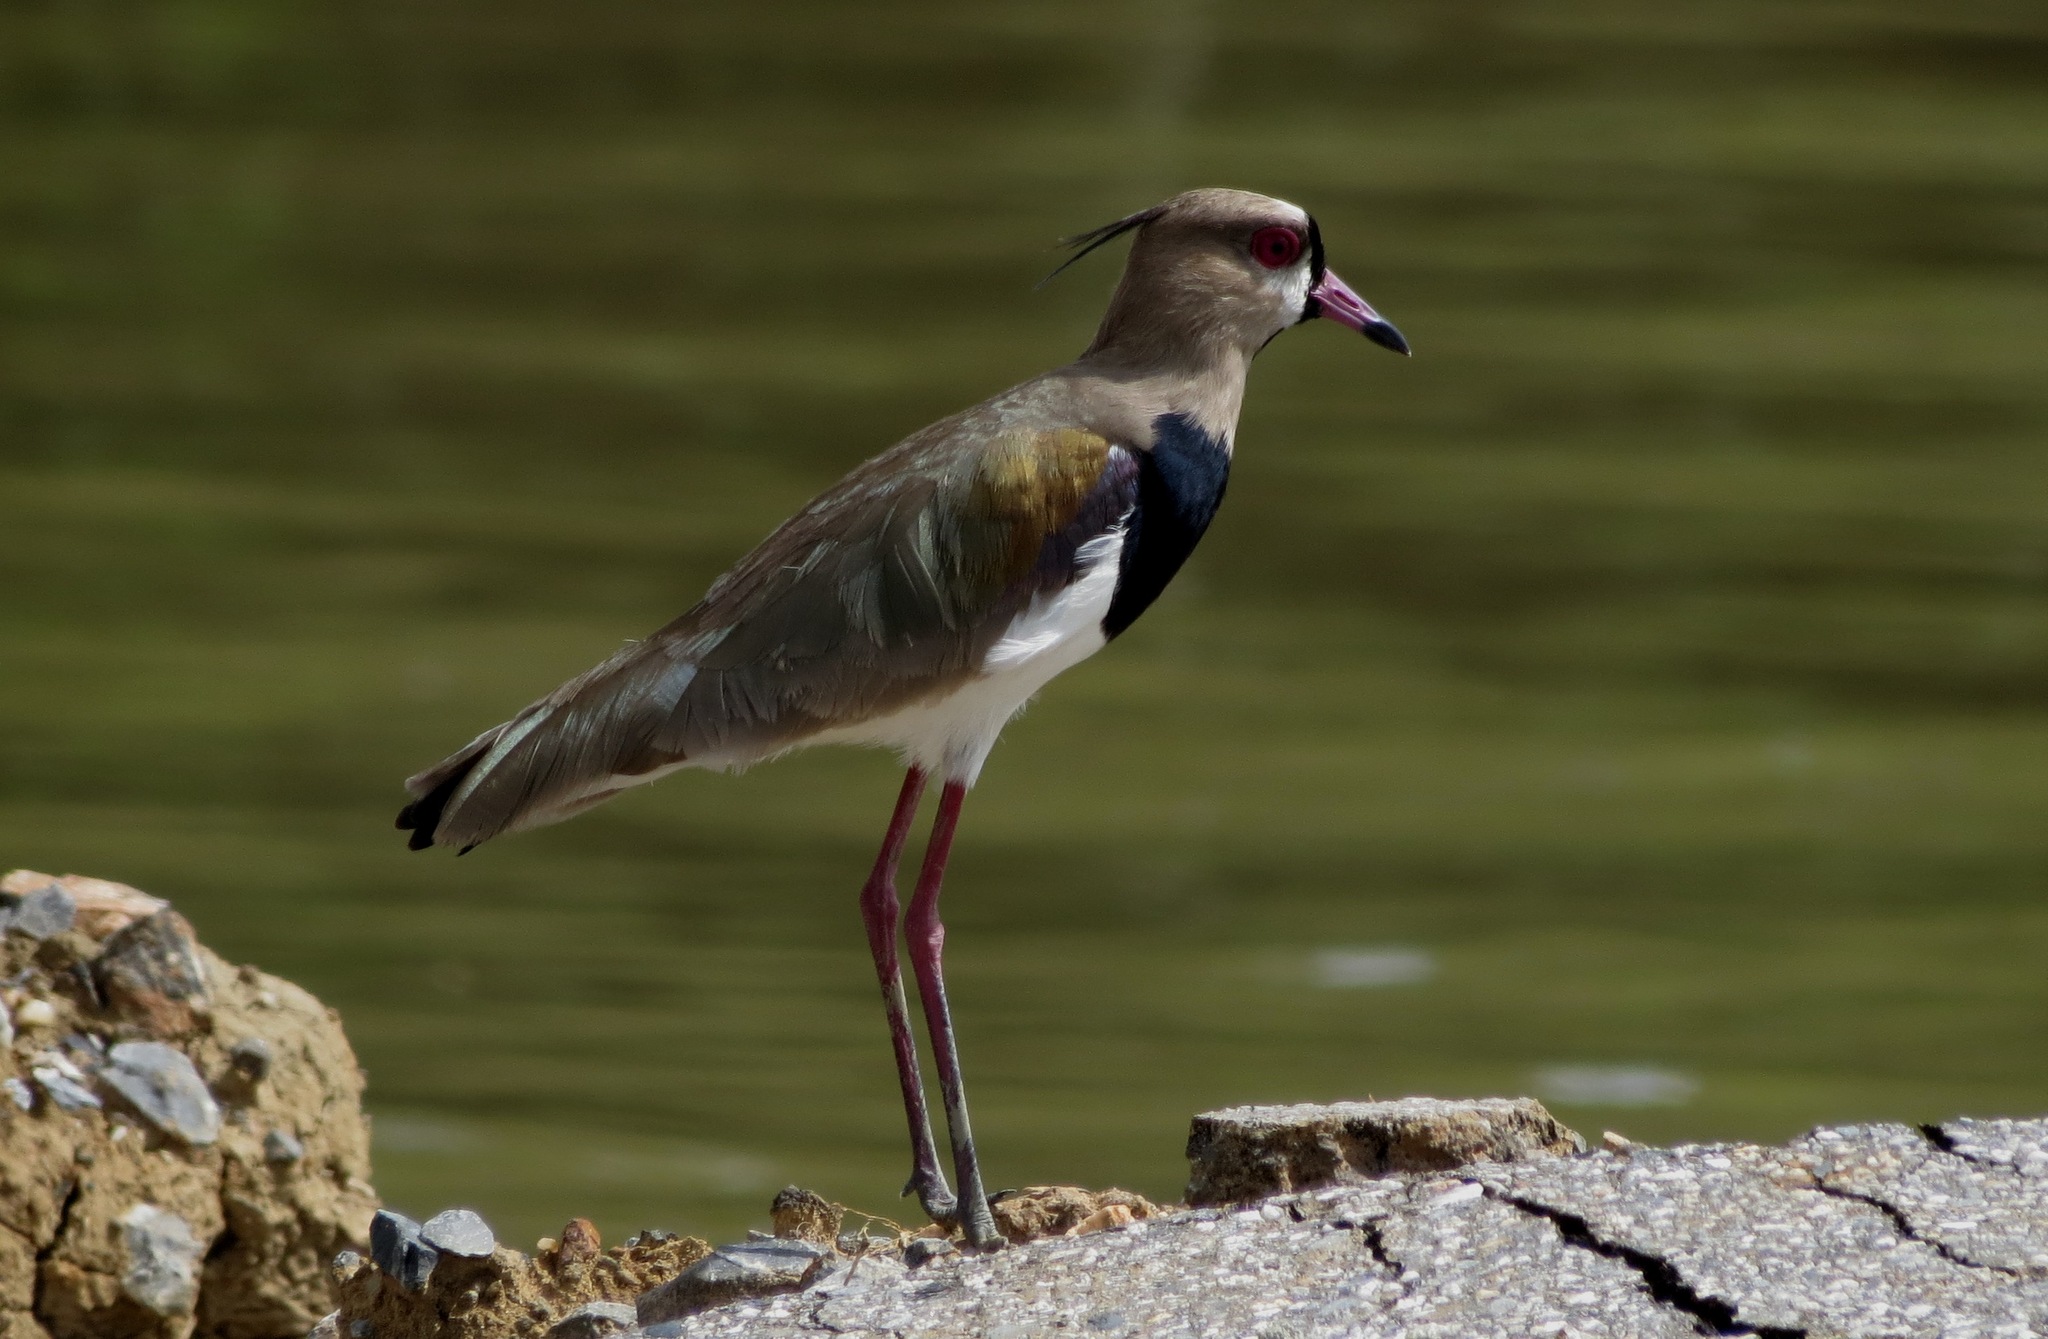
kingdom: Animalia
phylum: Chordata
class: Aves
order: Charadriiformes
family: Charadriidae
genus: Vanellus
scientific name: Vanellus chilensis
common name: Southern lapwing
